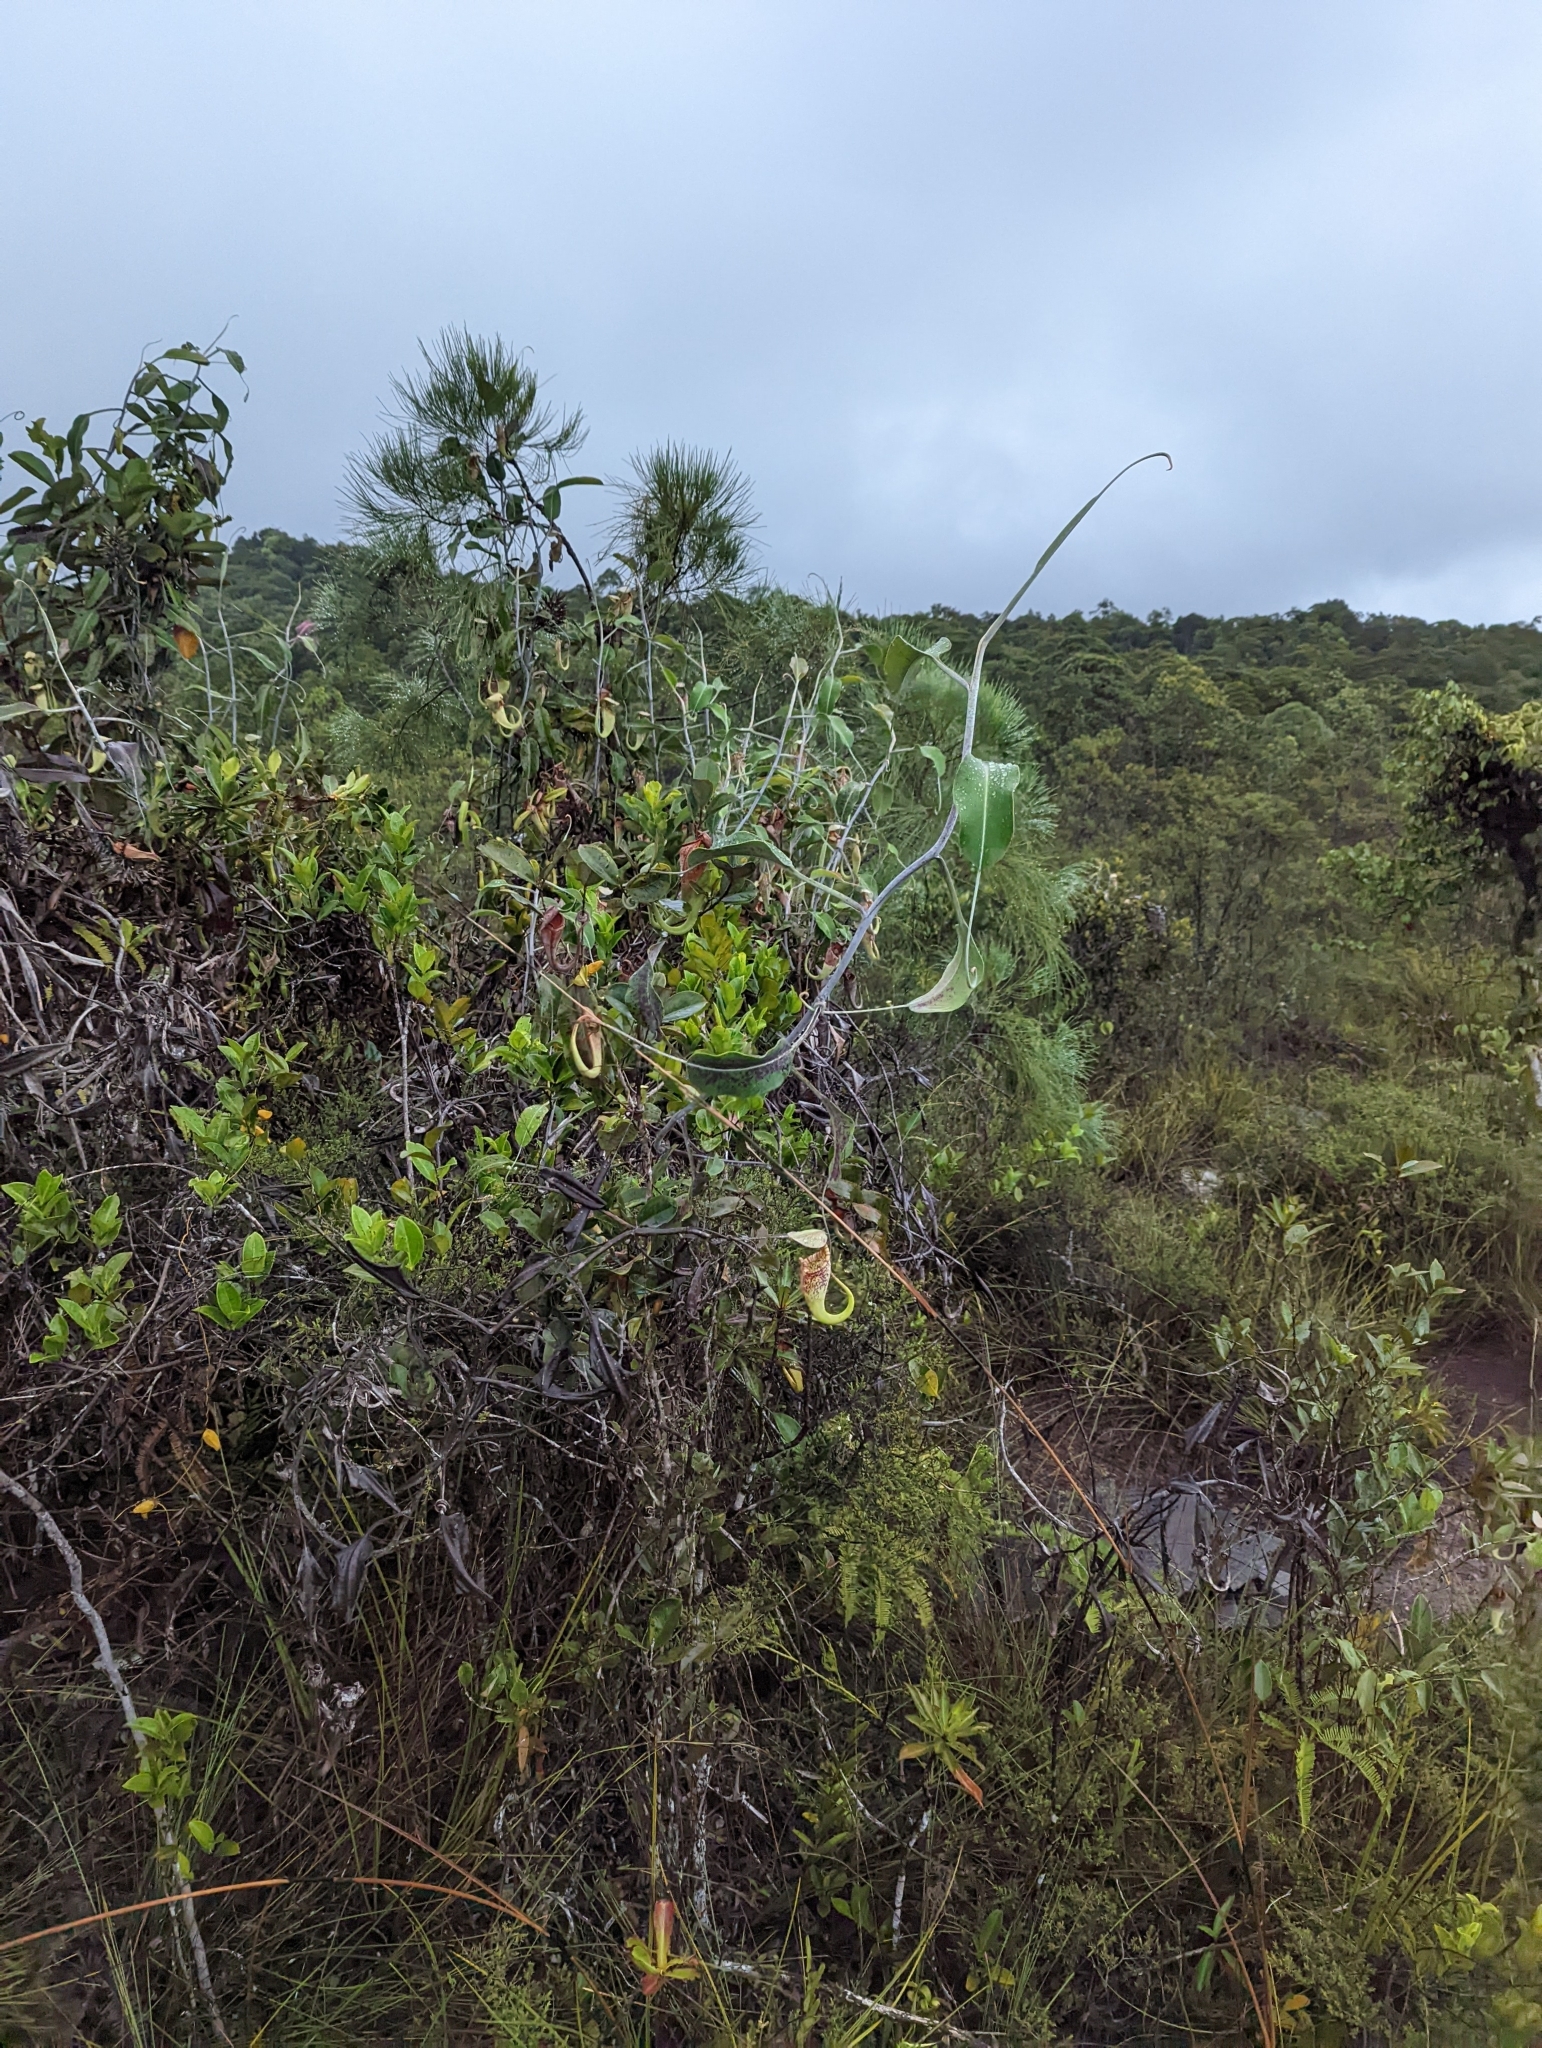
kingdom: Plantae
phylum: Tracheophyta
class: Magnoliopsida
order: Caryophyllales
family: Nepenthaceae
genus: Nepenthes
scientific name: Nepenthes rafflesiana
